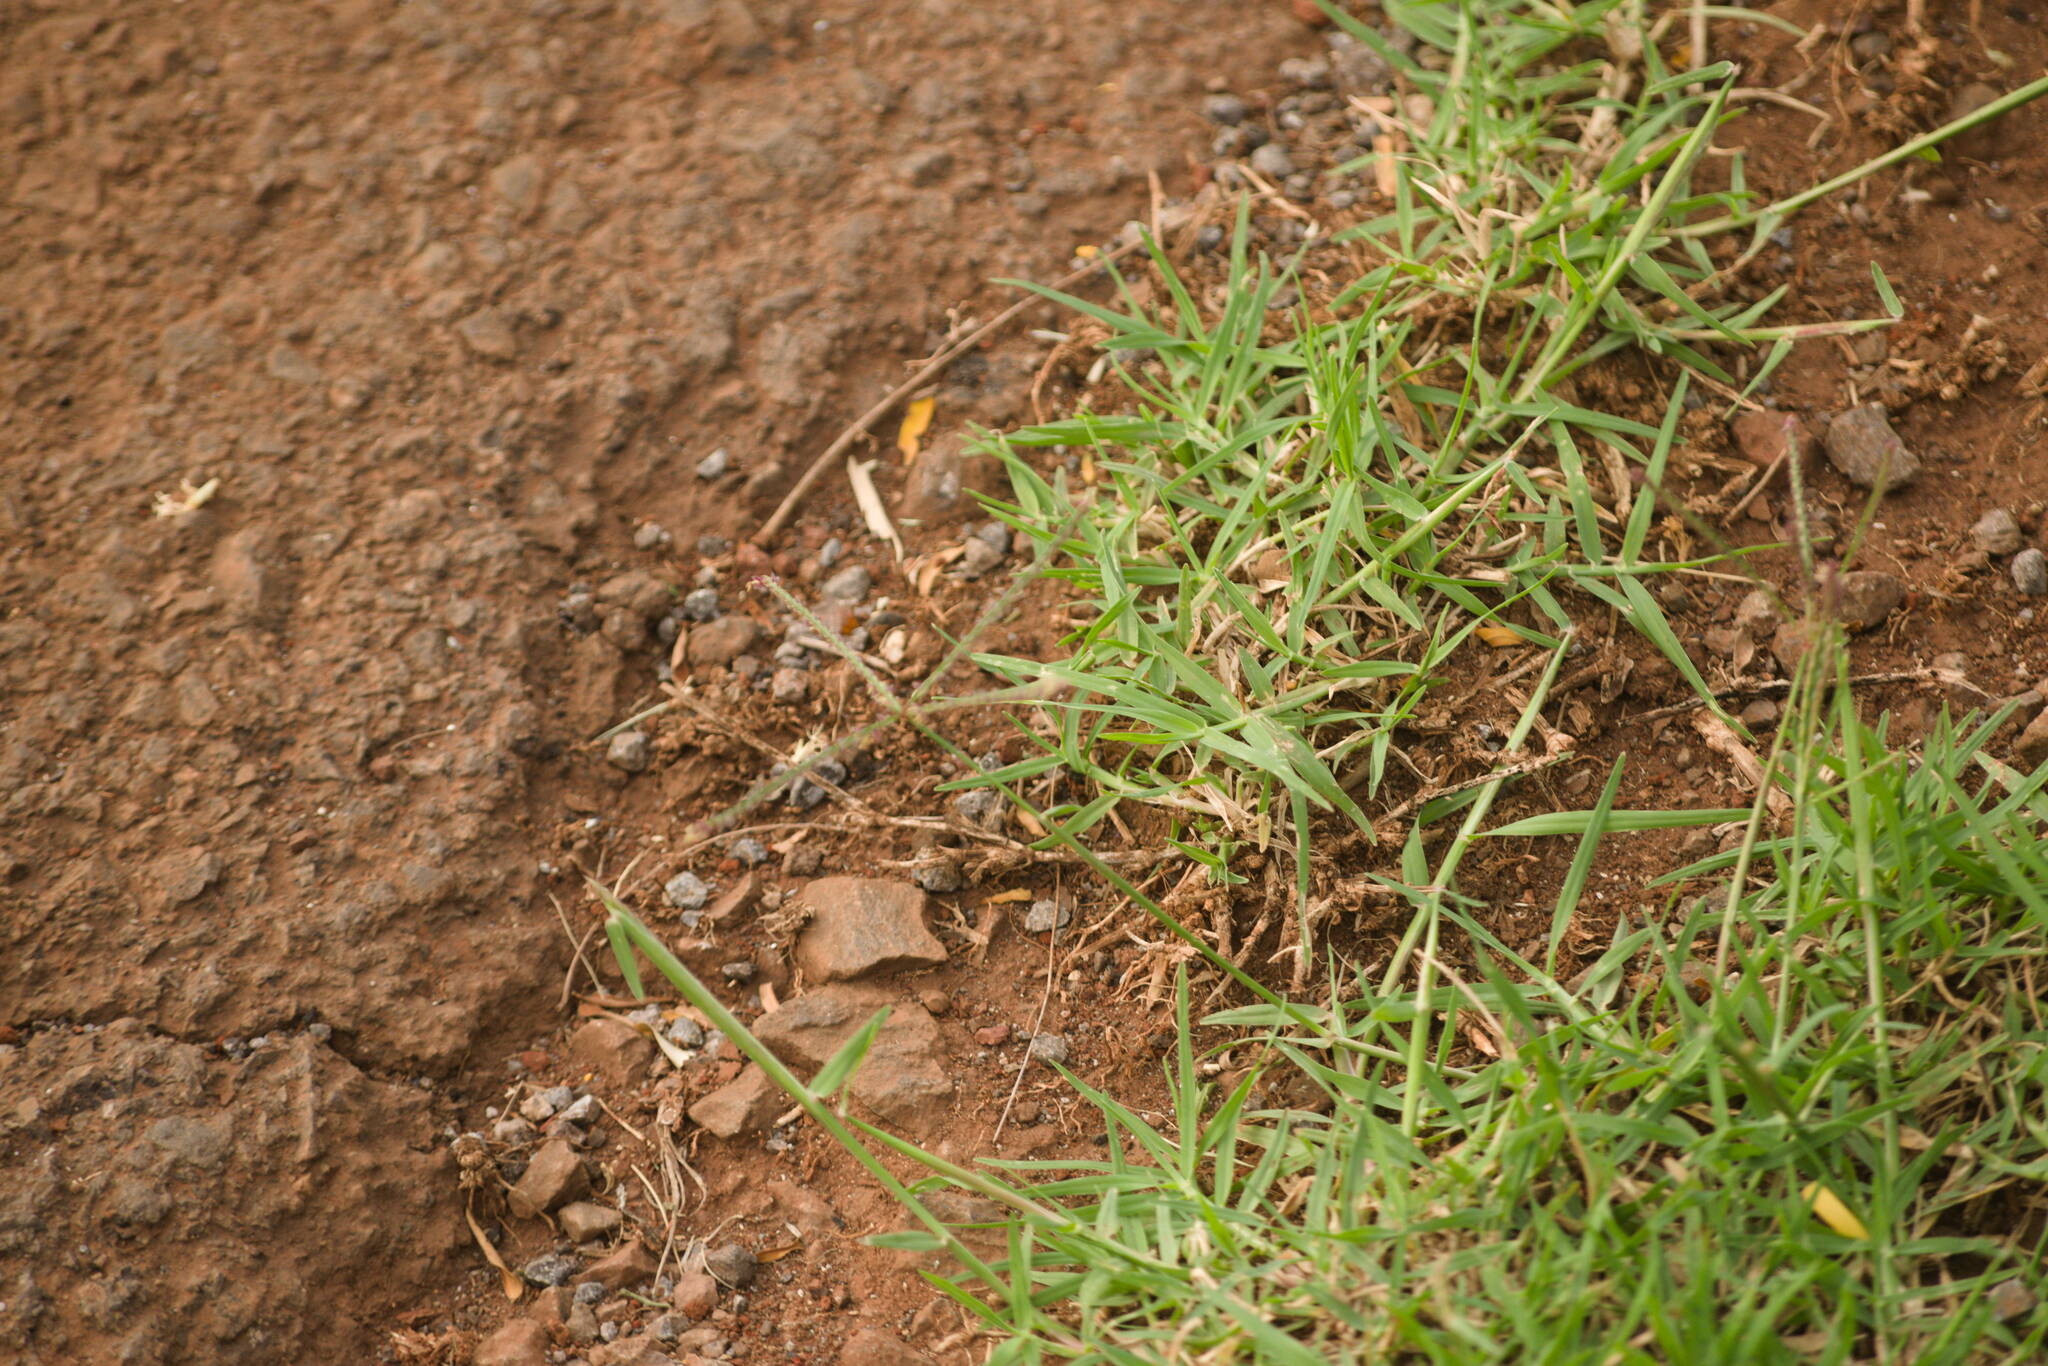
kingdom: Plantae
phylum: Tracheophyta
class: Liliopsida
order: Poales
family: Poaceae
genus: Cynodon
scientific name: Cynodon dactylon
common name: Bermuda grass
